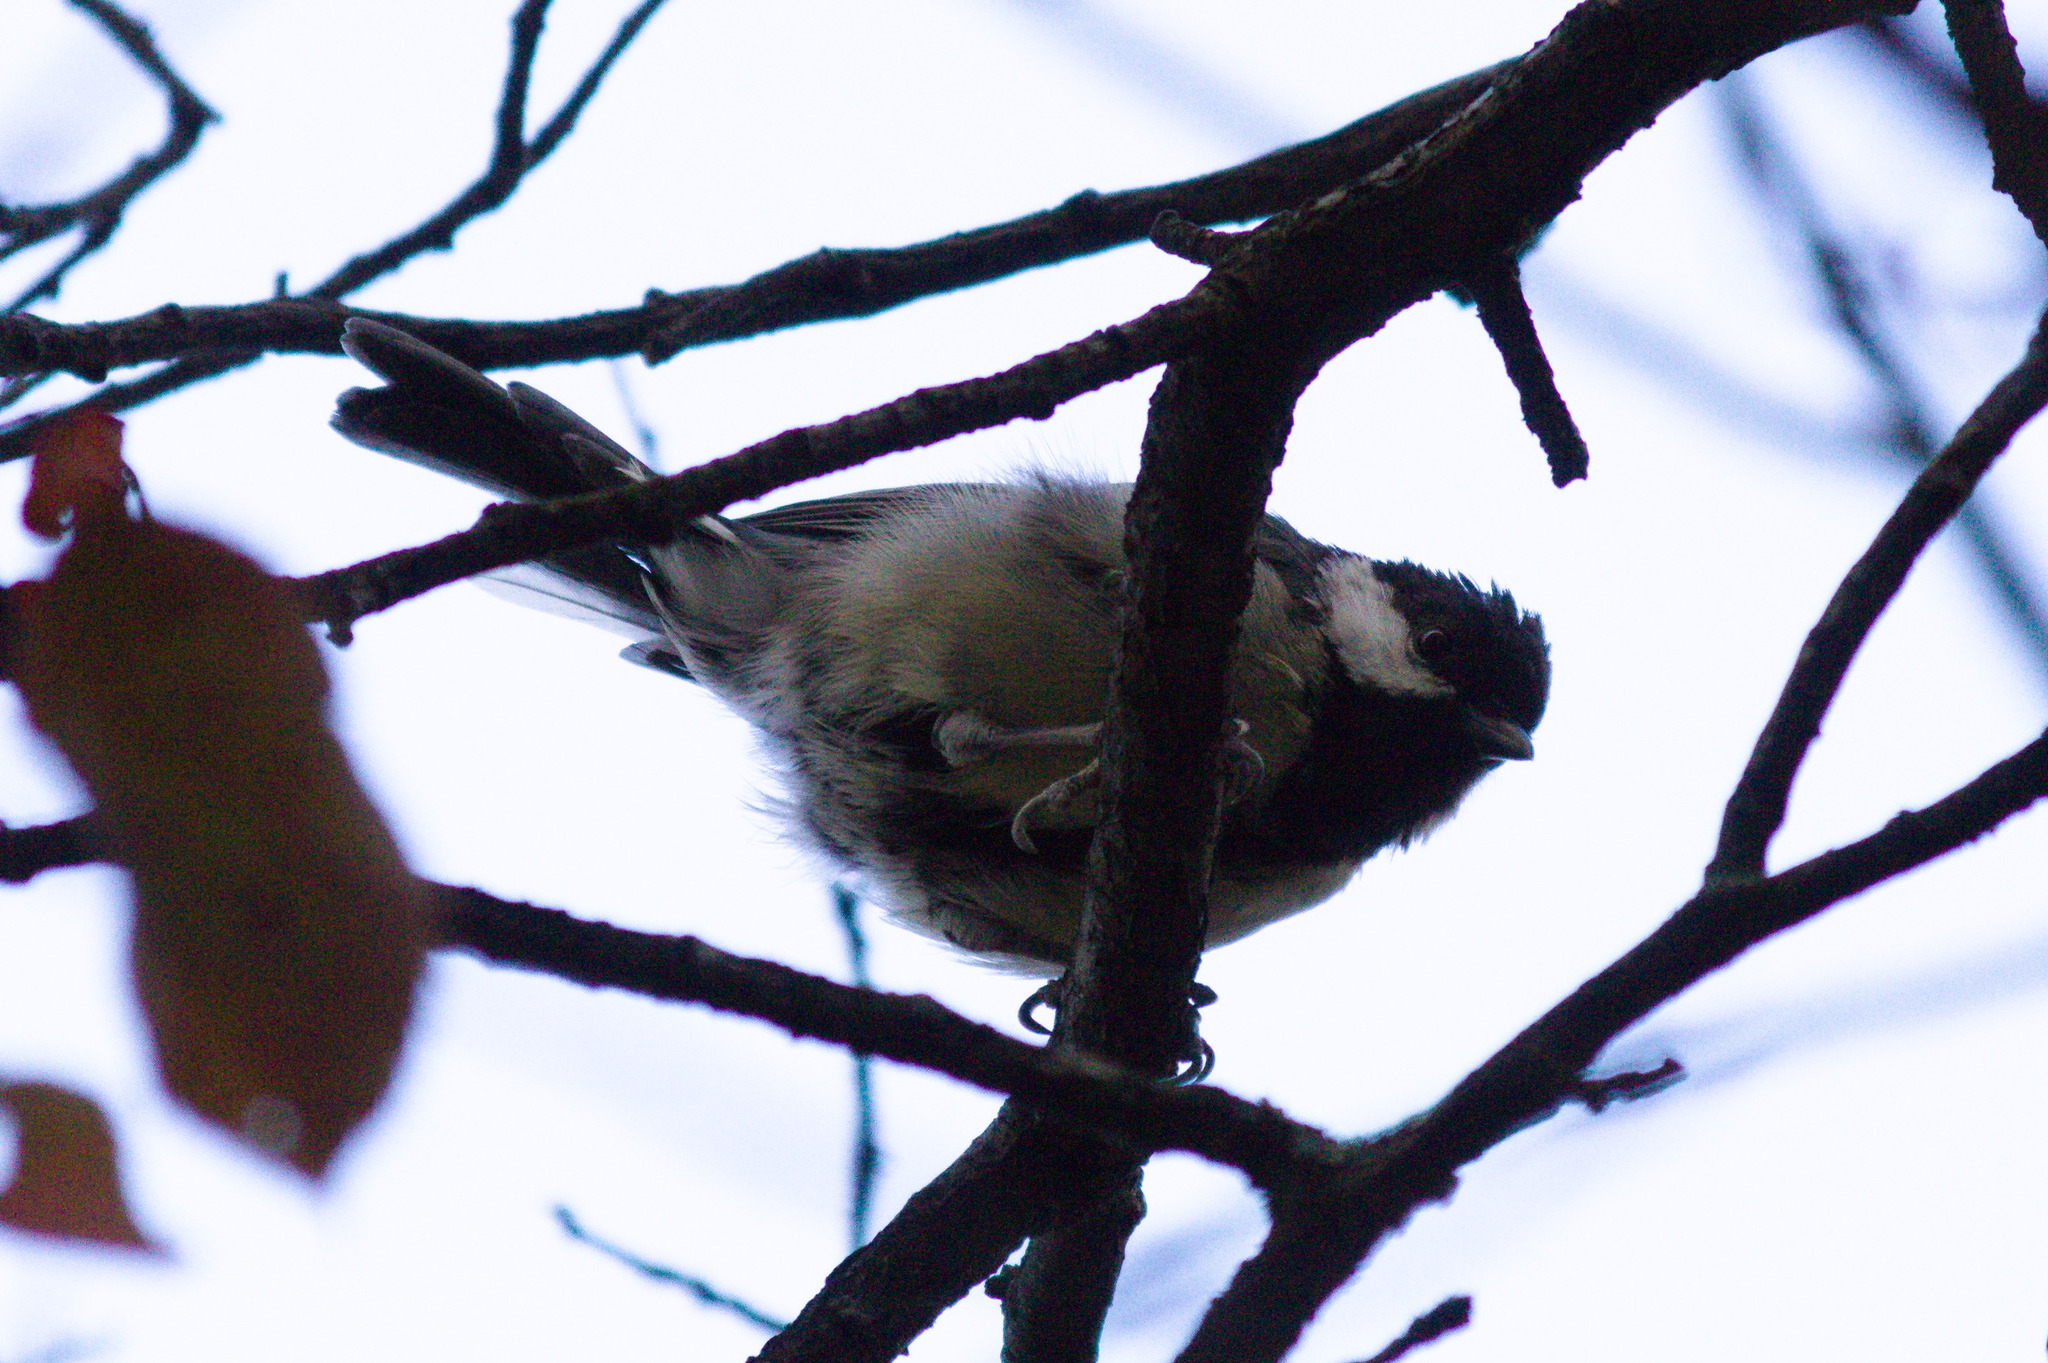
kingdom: Animalia
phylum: Chordata
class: Aves
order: Passeriformes
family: Paridae
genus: Parus
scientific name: Parus major
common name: Great tit
